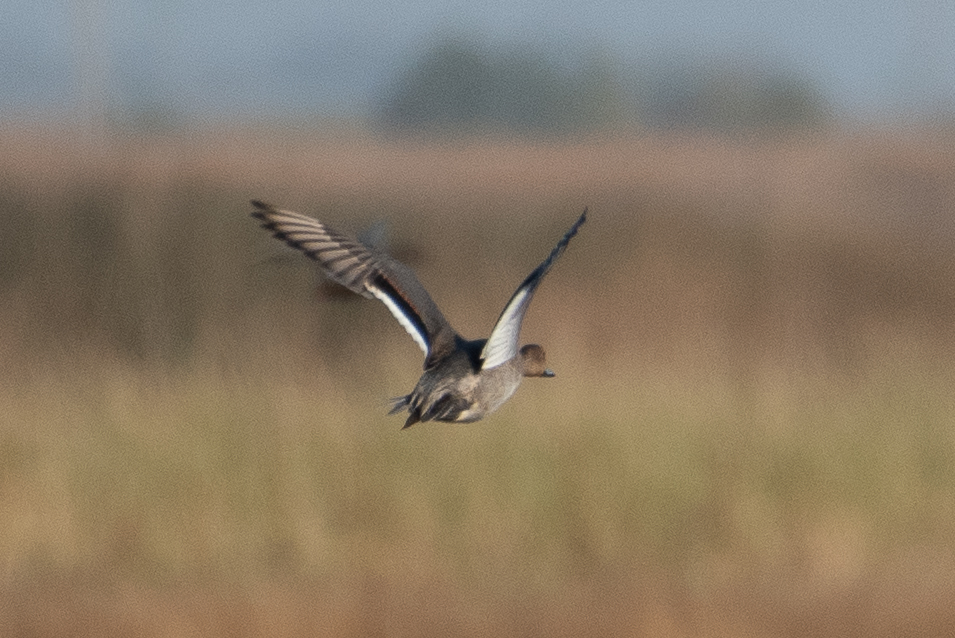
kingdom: Animalia
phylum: Chordata
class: Aves
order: Anseriformes
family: Anatidae
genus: Anas
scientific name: Anas acuta
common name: Northern pintail
